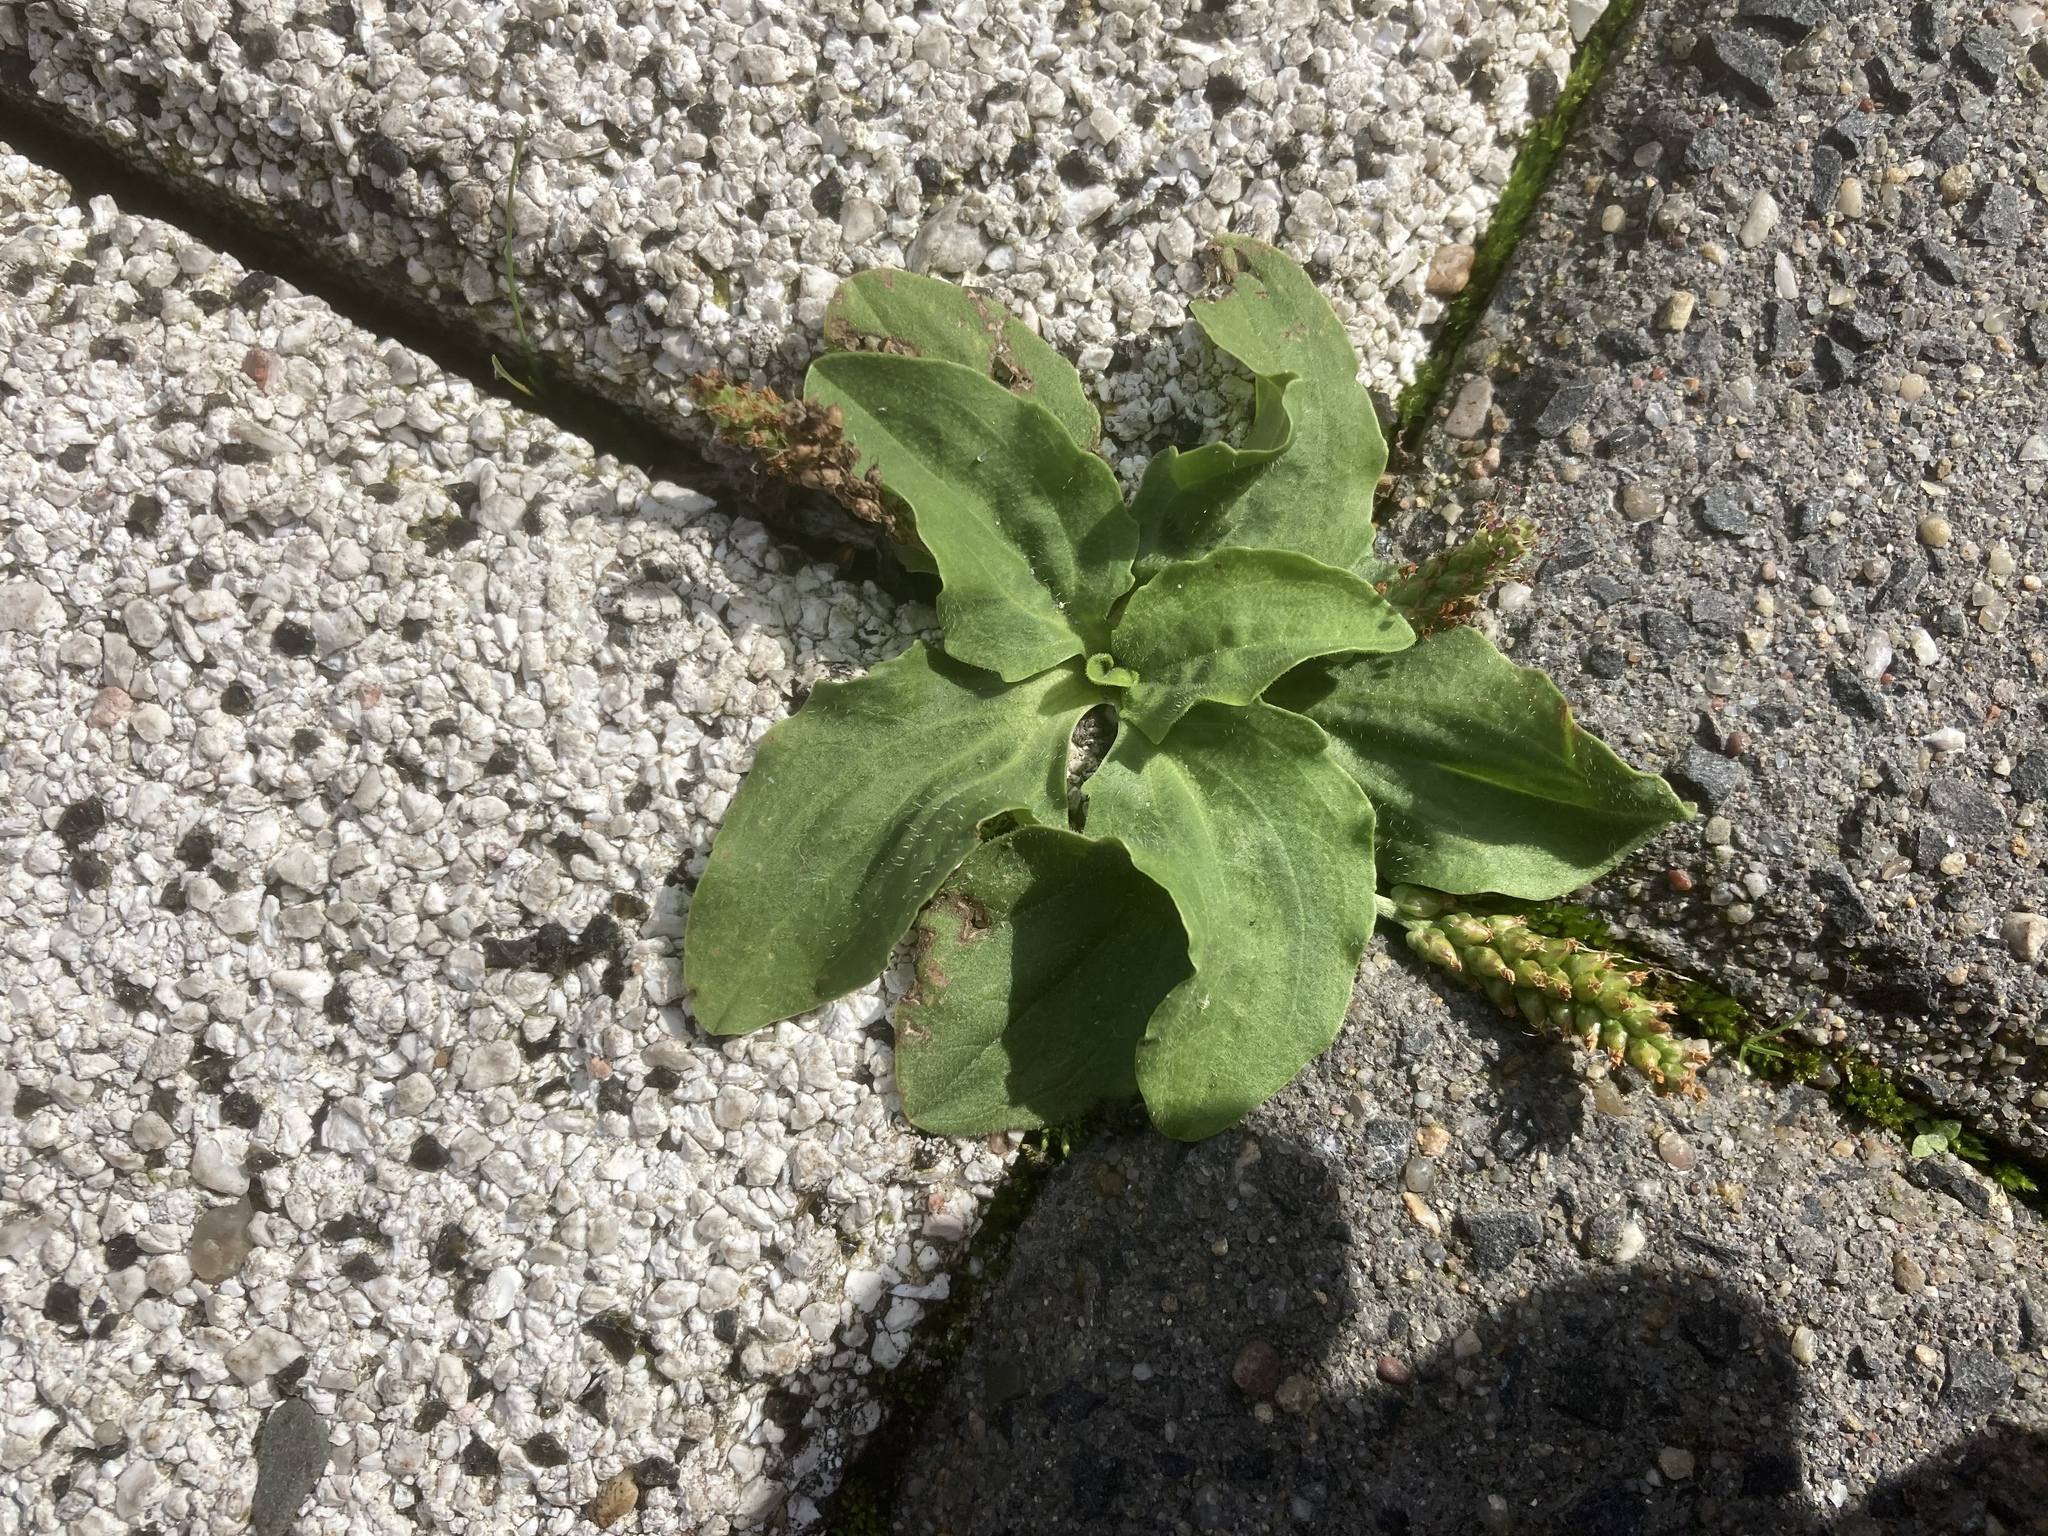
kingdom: Plantae
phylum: Tracheophyta
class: Magnoliopsida
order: Lamiales
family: Plantaginaceae
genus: Plantago
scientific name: Plantago major
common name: Common plantain
